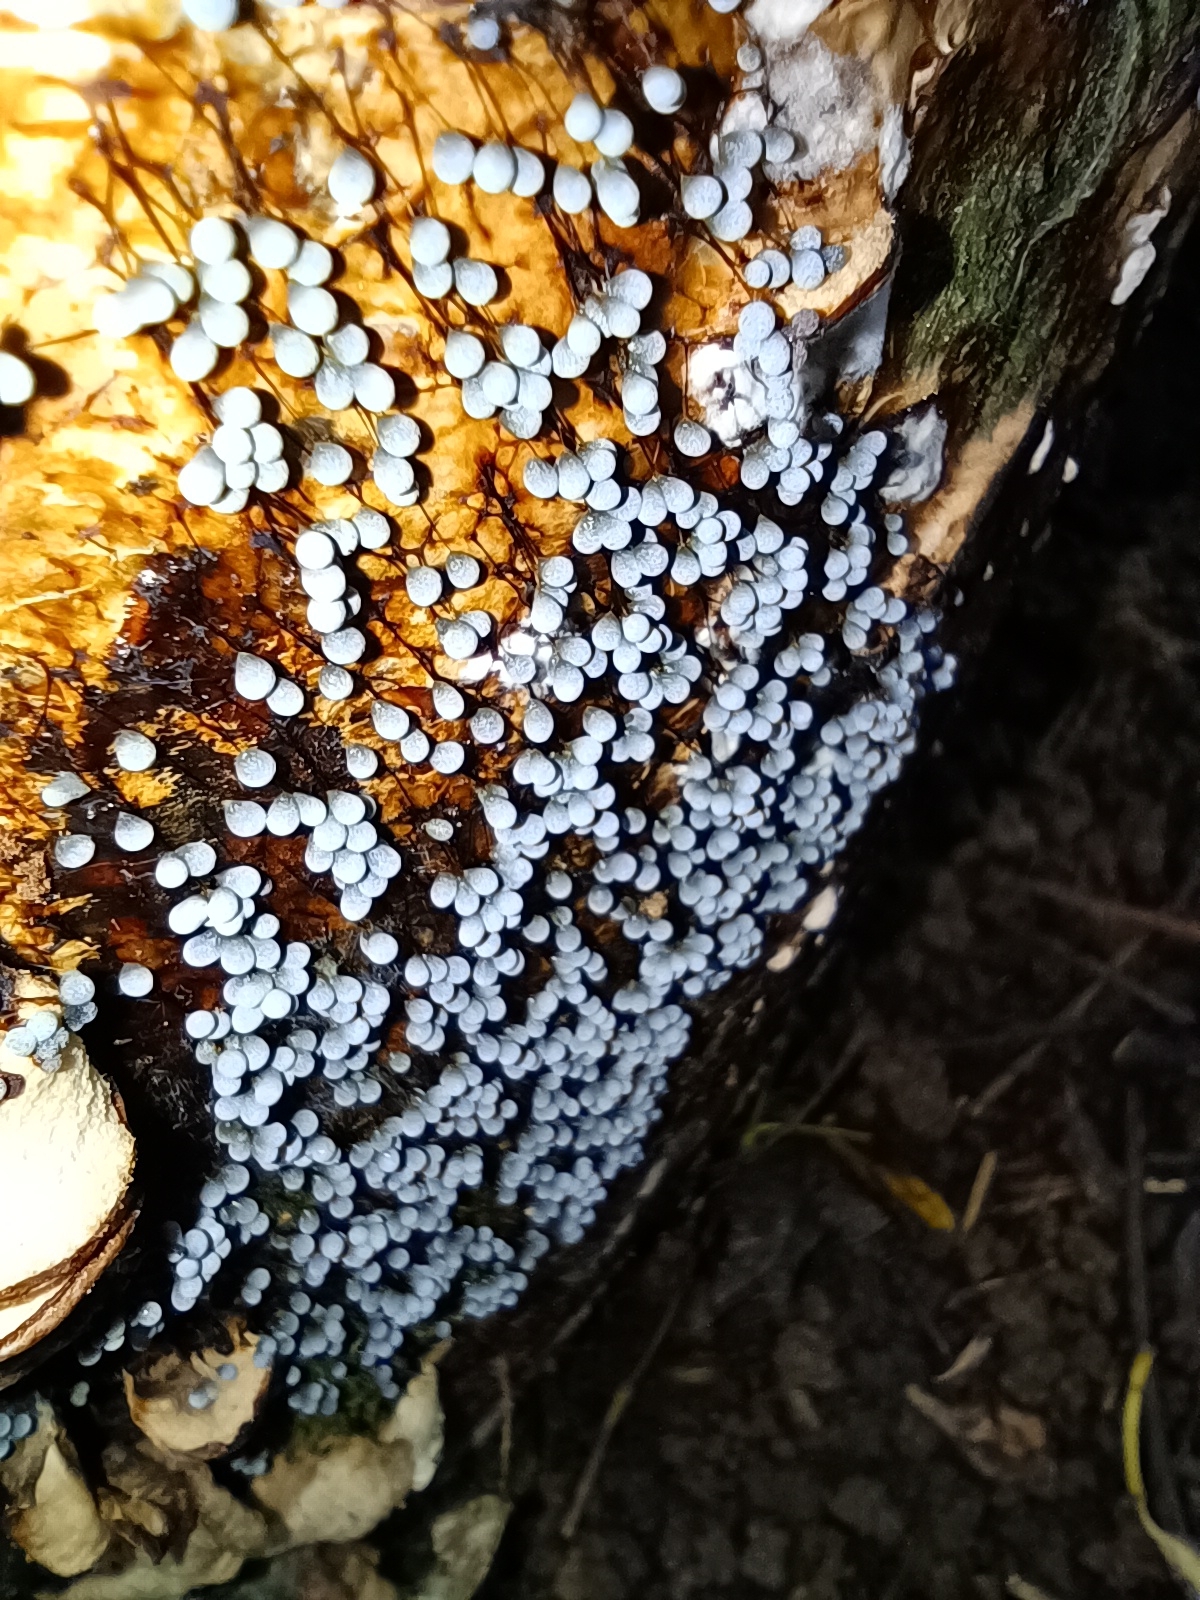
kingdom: Protozoa
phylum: Mycetozoa
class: Myxomycetes
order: Physarales
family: Physaraceae
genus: Badhamia
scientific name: Badhamia utricularis
